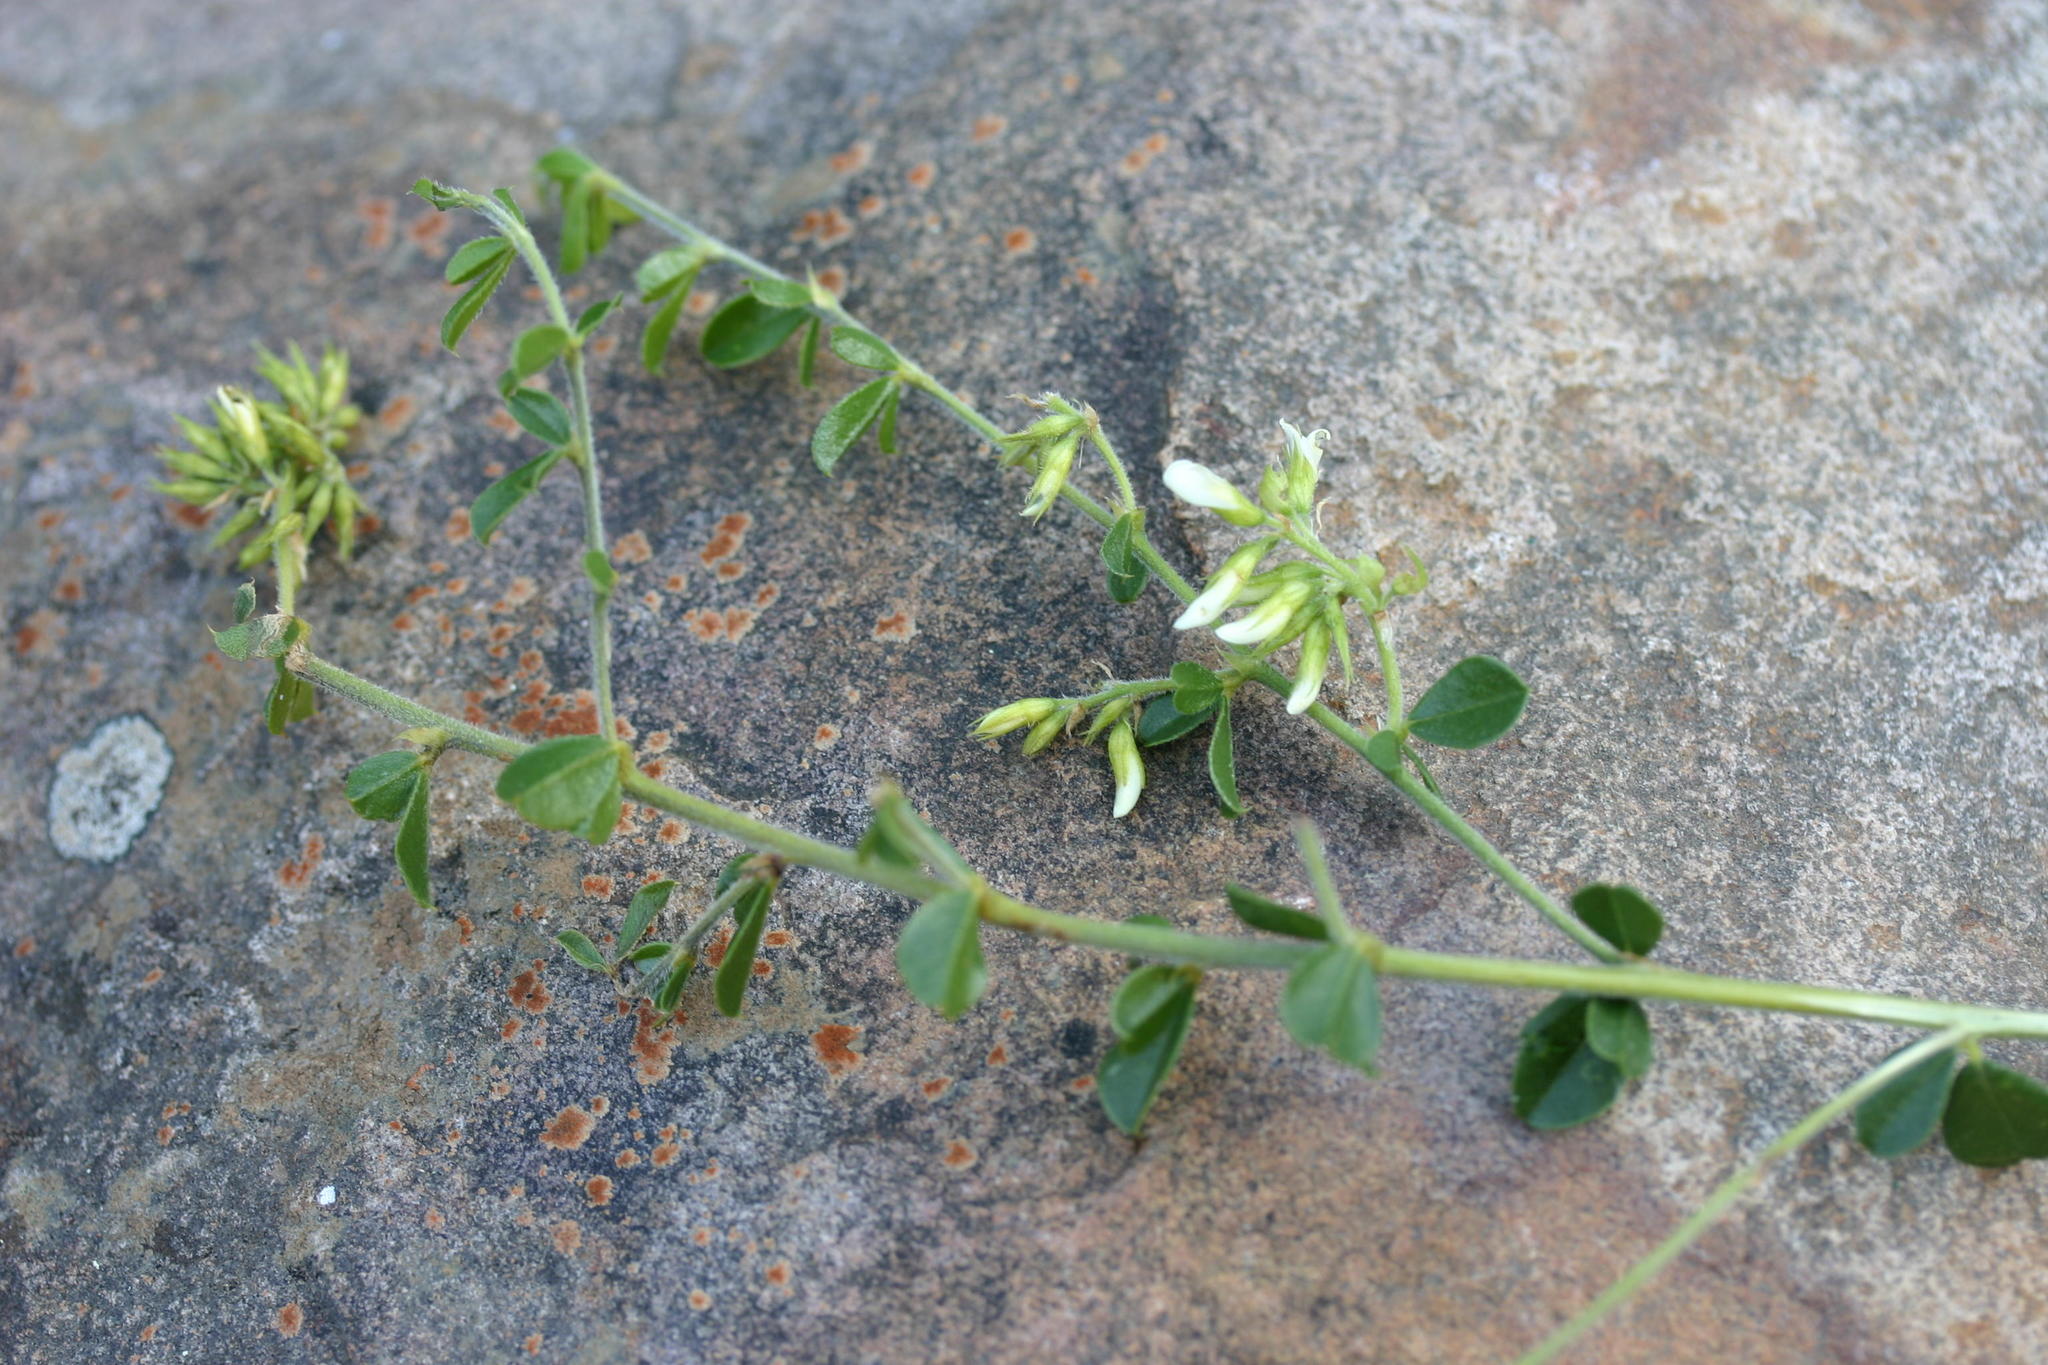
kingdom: Plantae
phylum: Tracheophyta
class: Magnoliopsida
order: Fabales
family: Fabaceae
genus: Psoralea
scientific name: Psoralea bowieana
